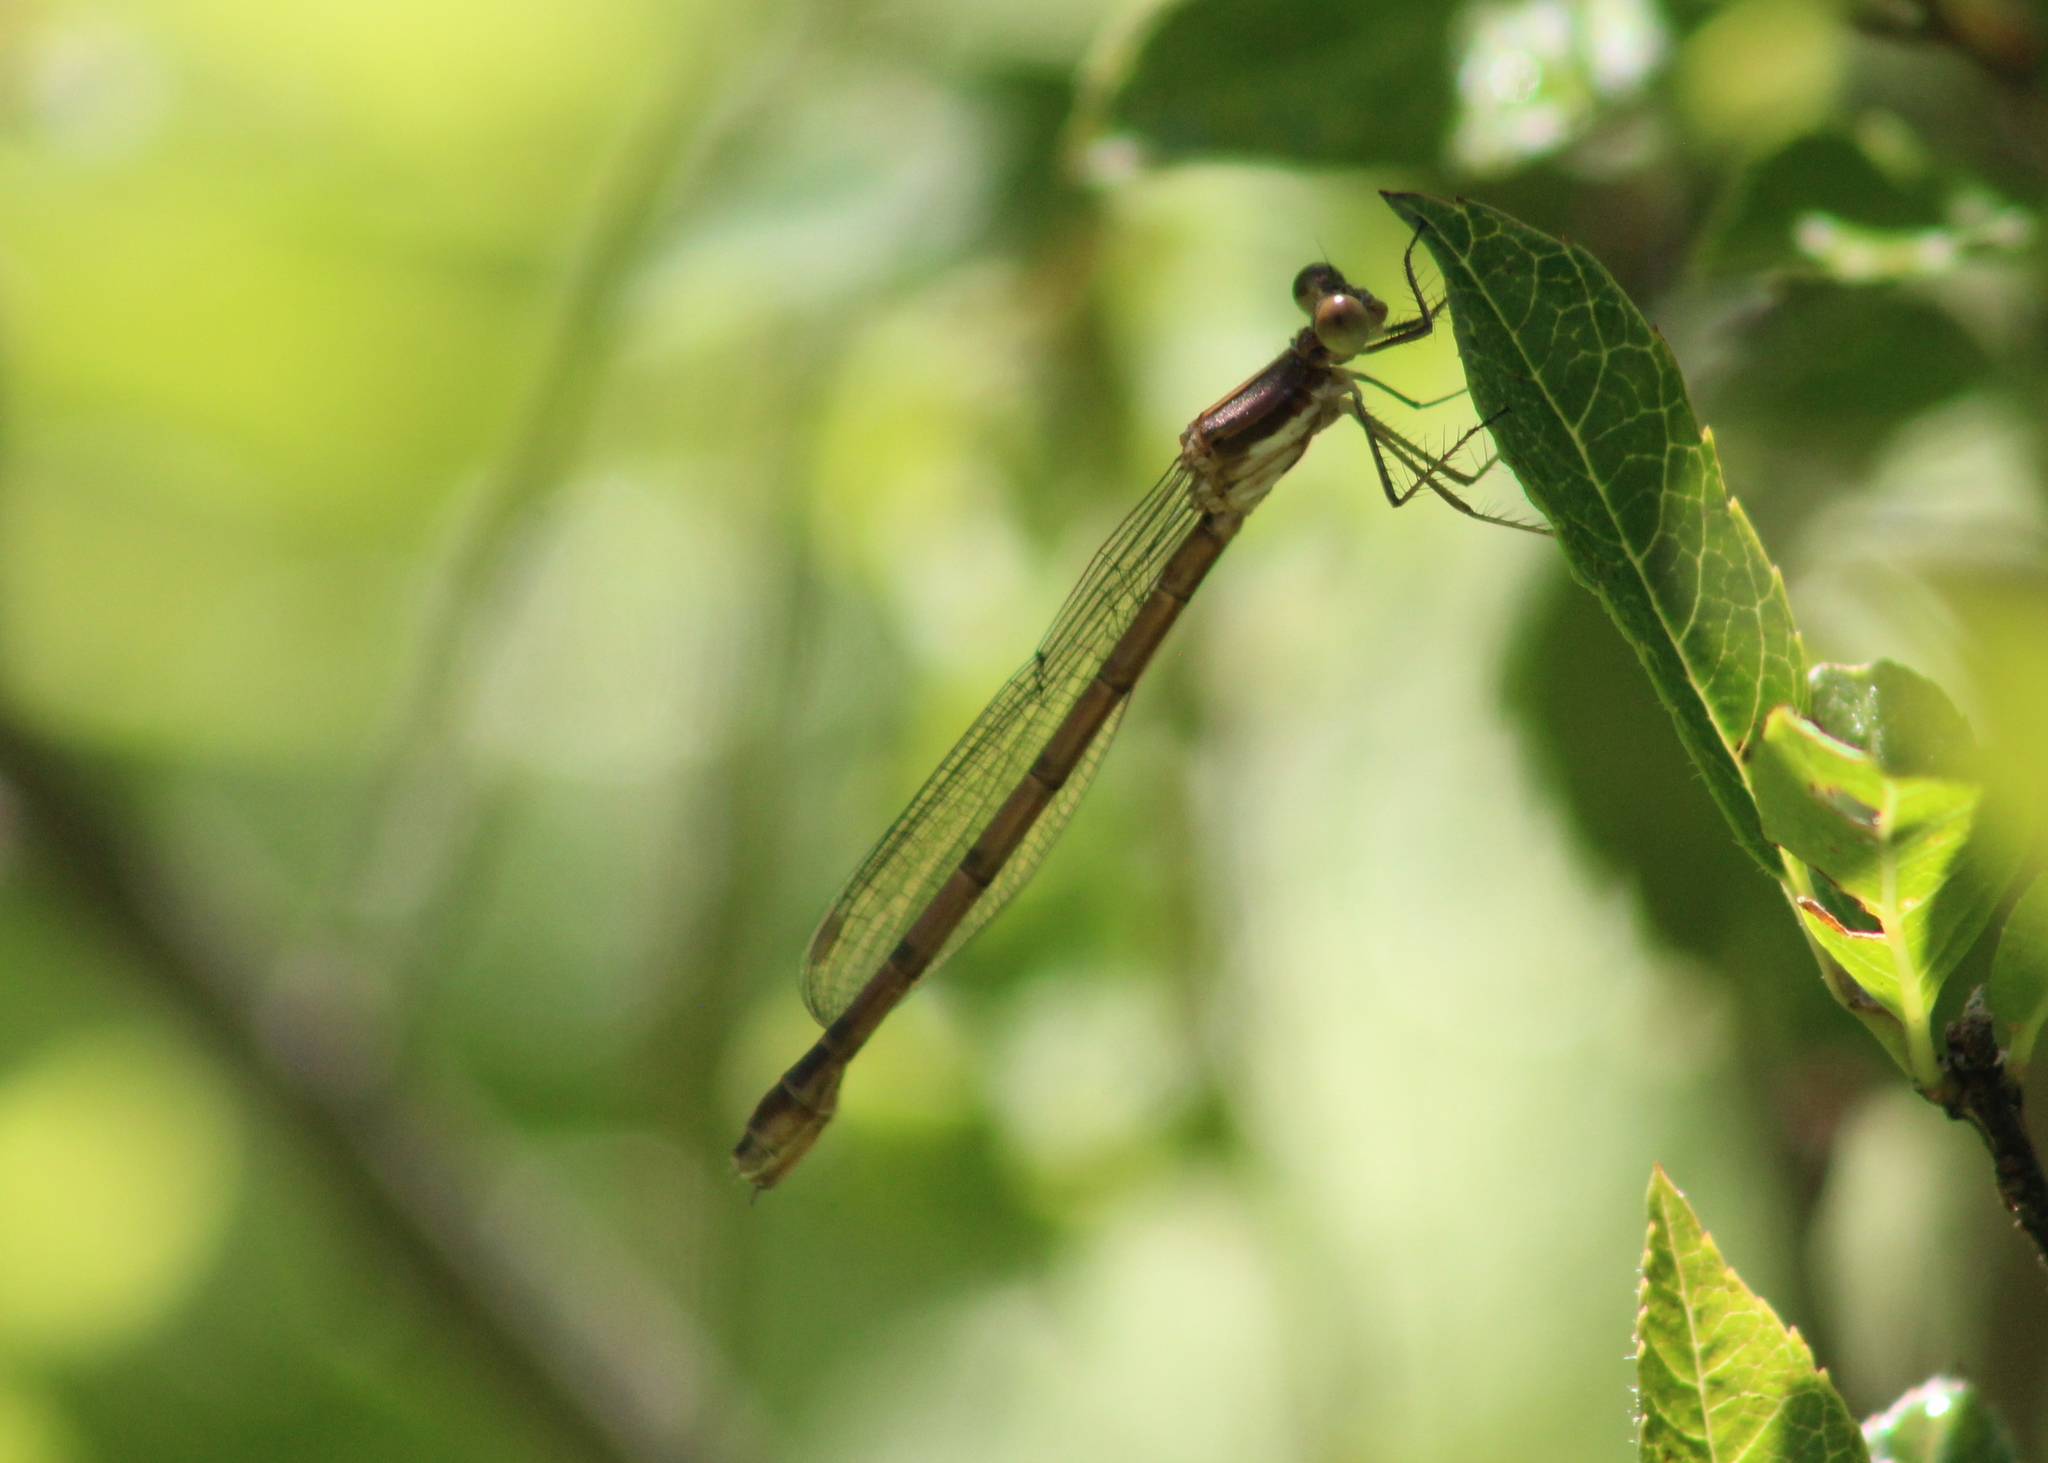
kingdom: Animalia
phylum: Arthropoda
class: Insecta
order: Odonata
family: Lestidae
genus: Lestes
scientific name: Lestes forcipatus
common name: Sweetflag spreadwing
